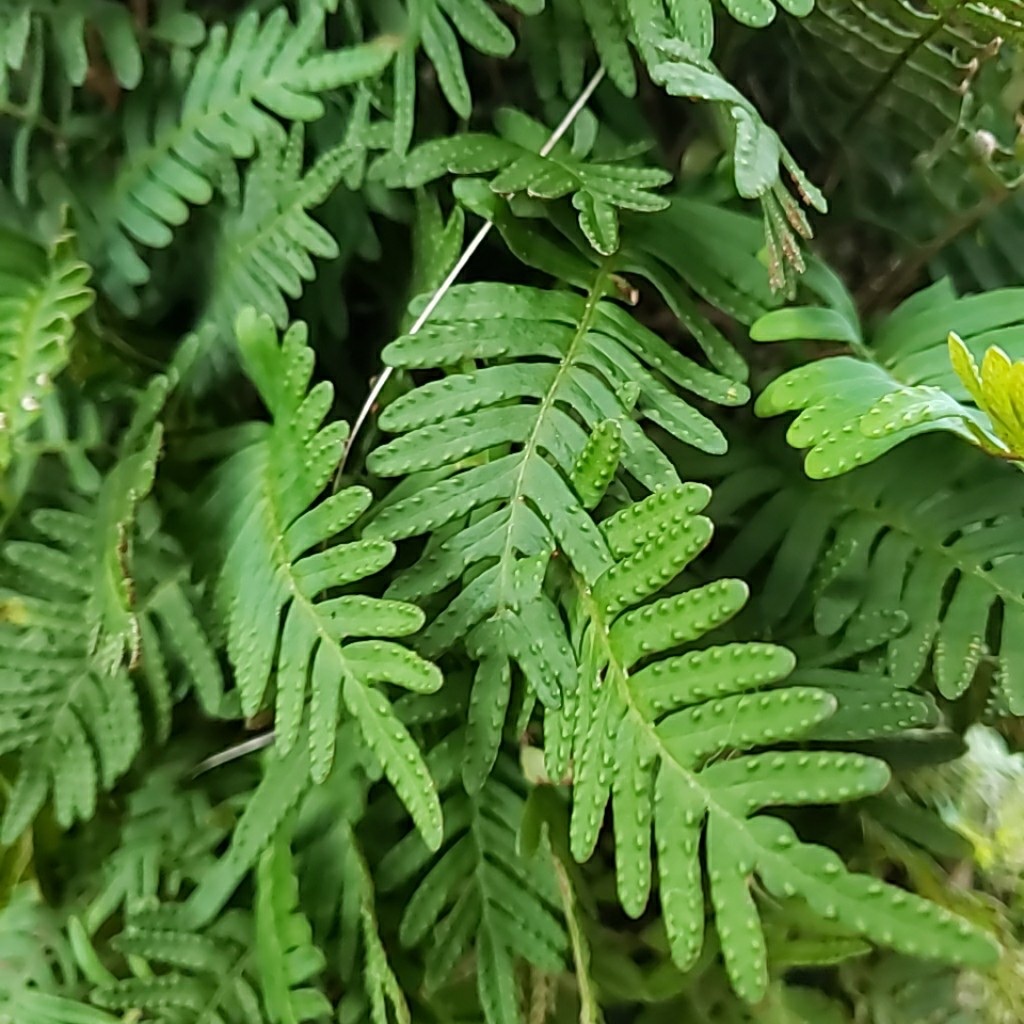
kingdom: Plantae
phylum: Tracheophyta
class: Polypodiopsida
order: Polypodiales
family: Polypodiaceae
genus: Pleopeltis
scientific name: Pleopeltis michauxiana
